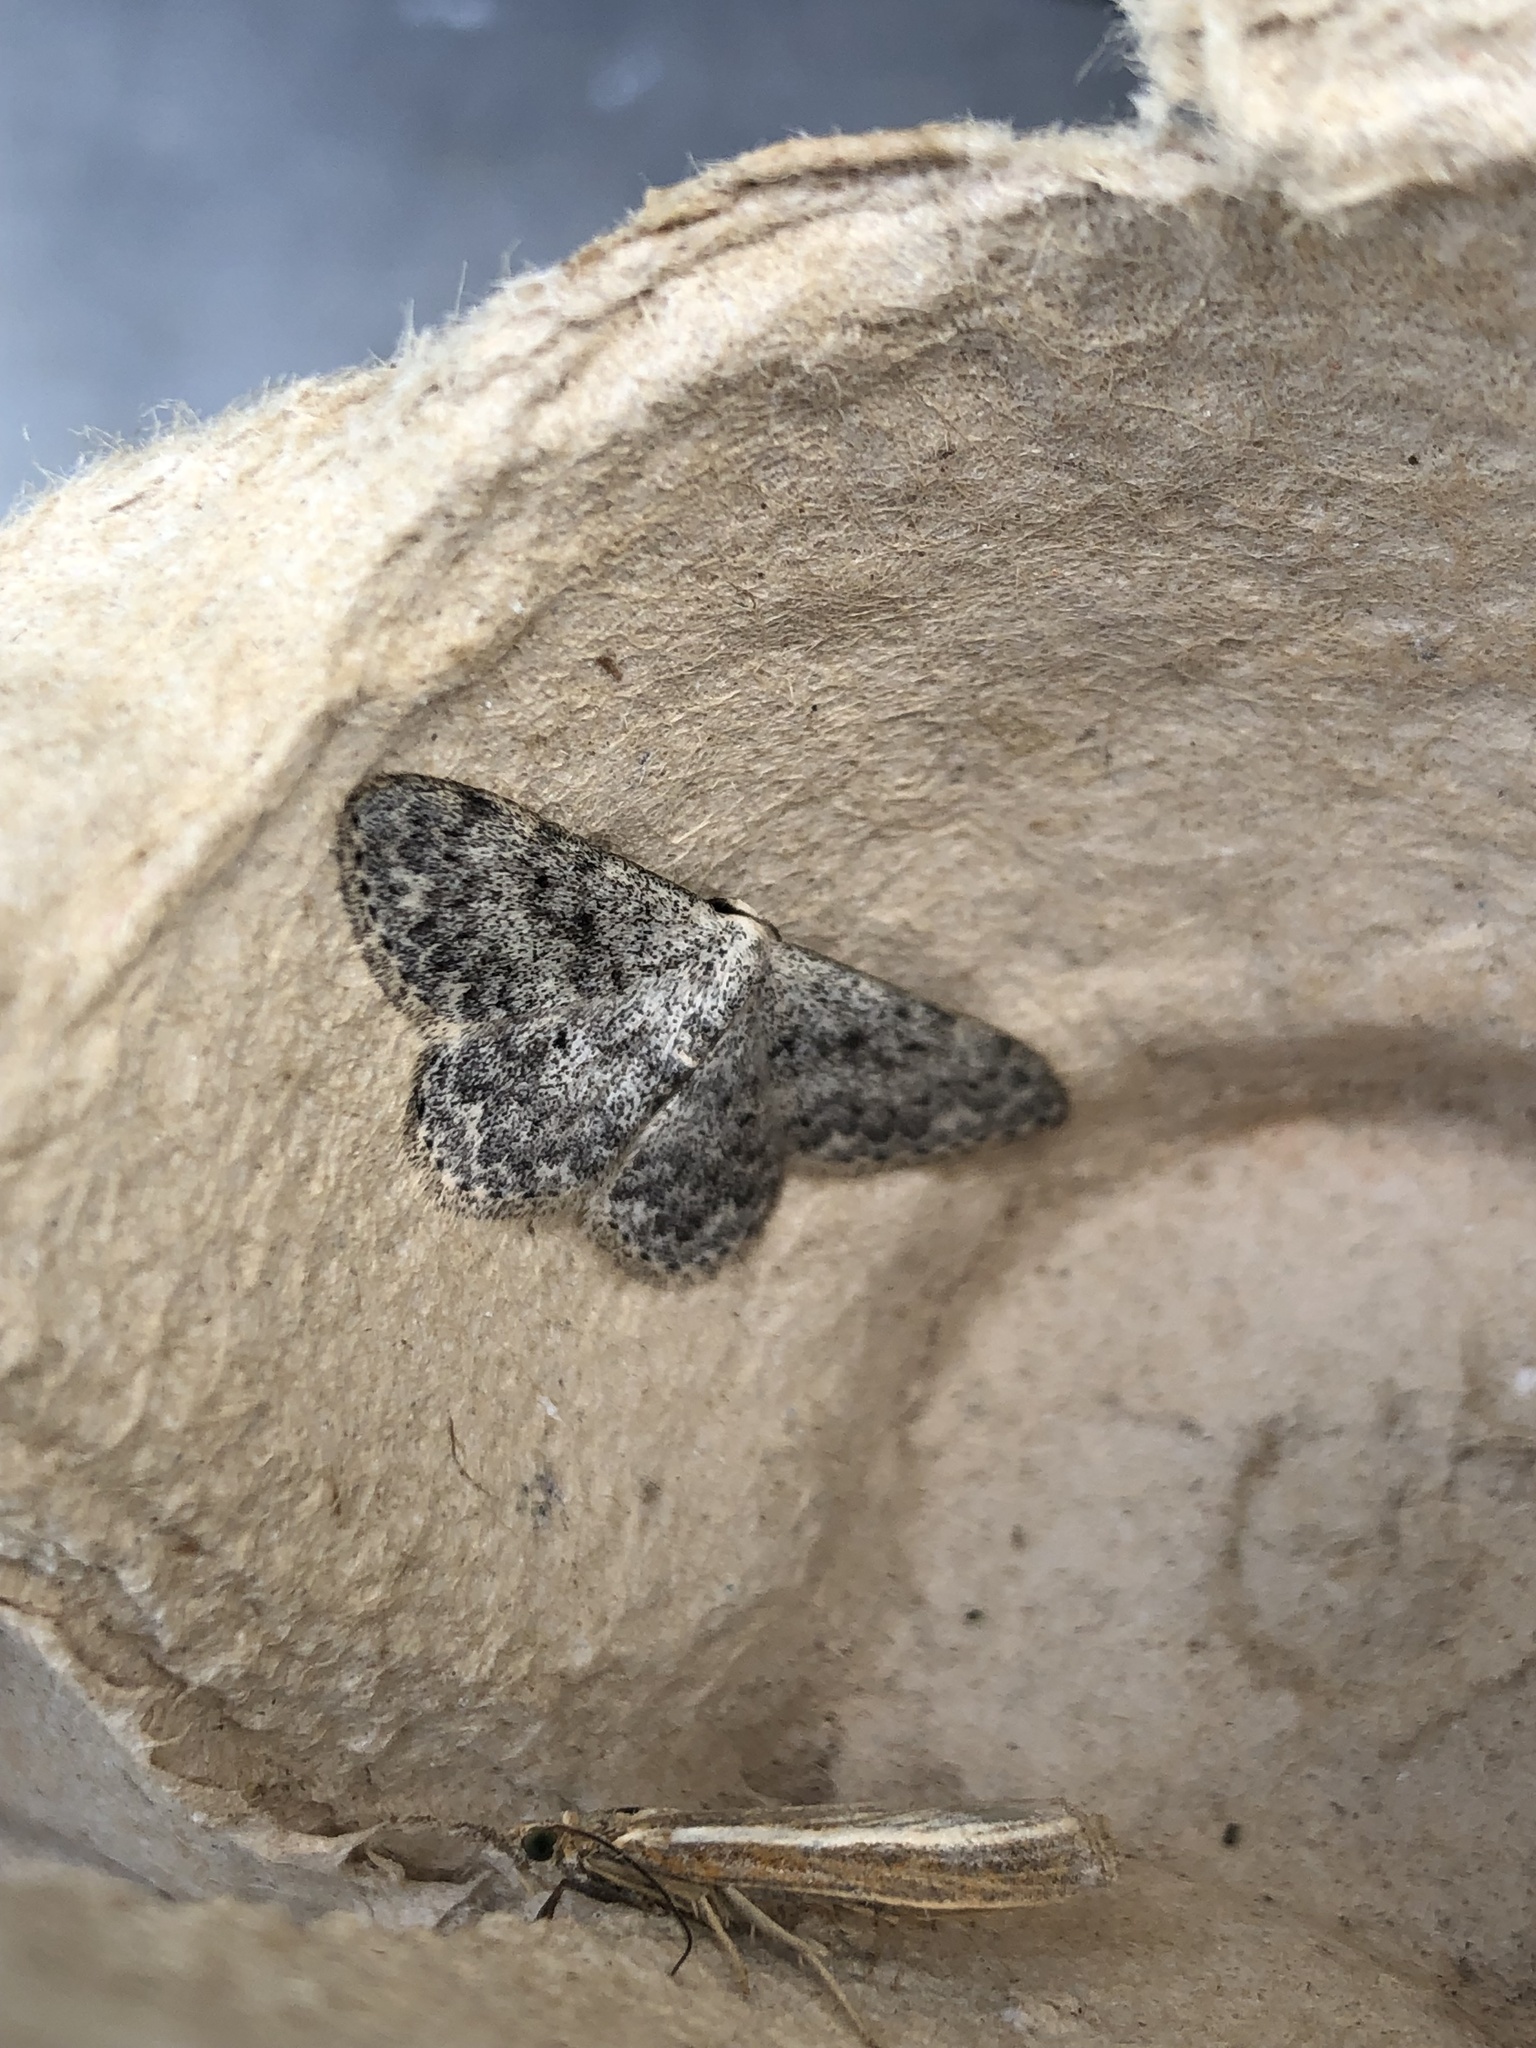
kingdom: Animalia
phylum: Arthropoda
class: Insecta
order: Lepidoptera
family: Geometridae
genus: Idaea
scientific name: Idaea seriata
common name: Small dusty wave
